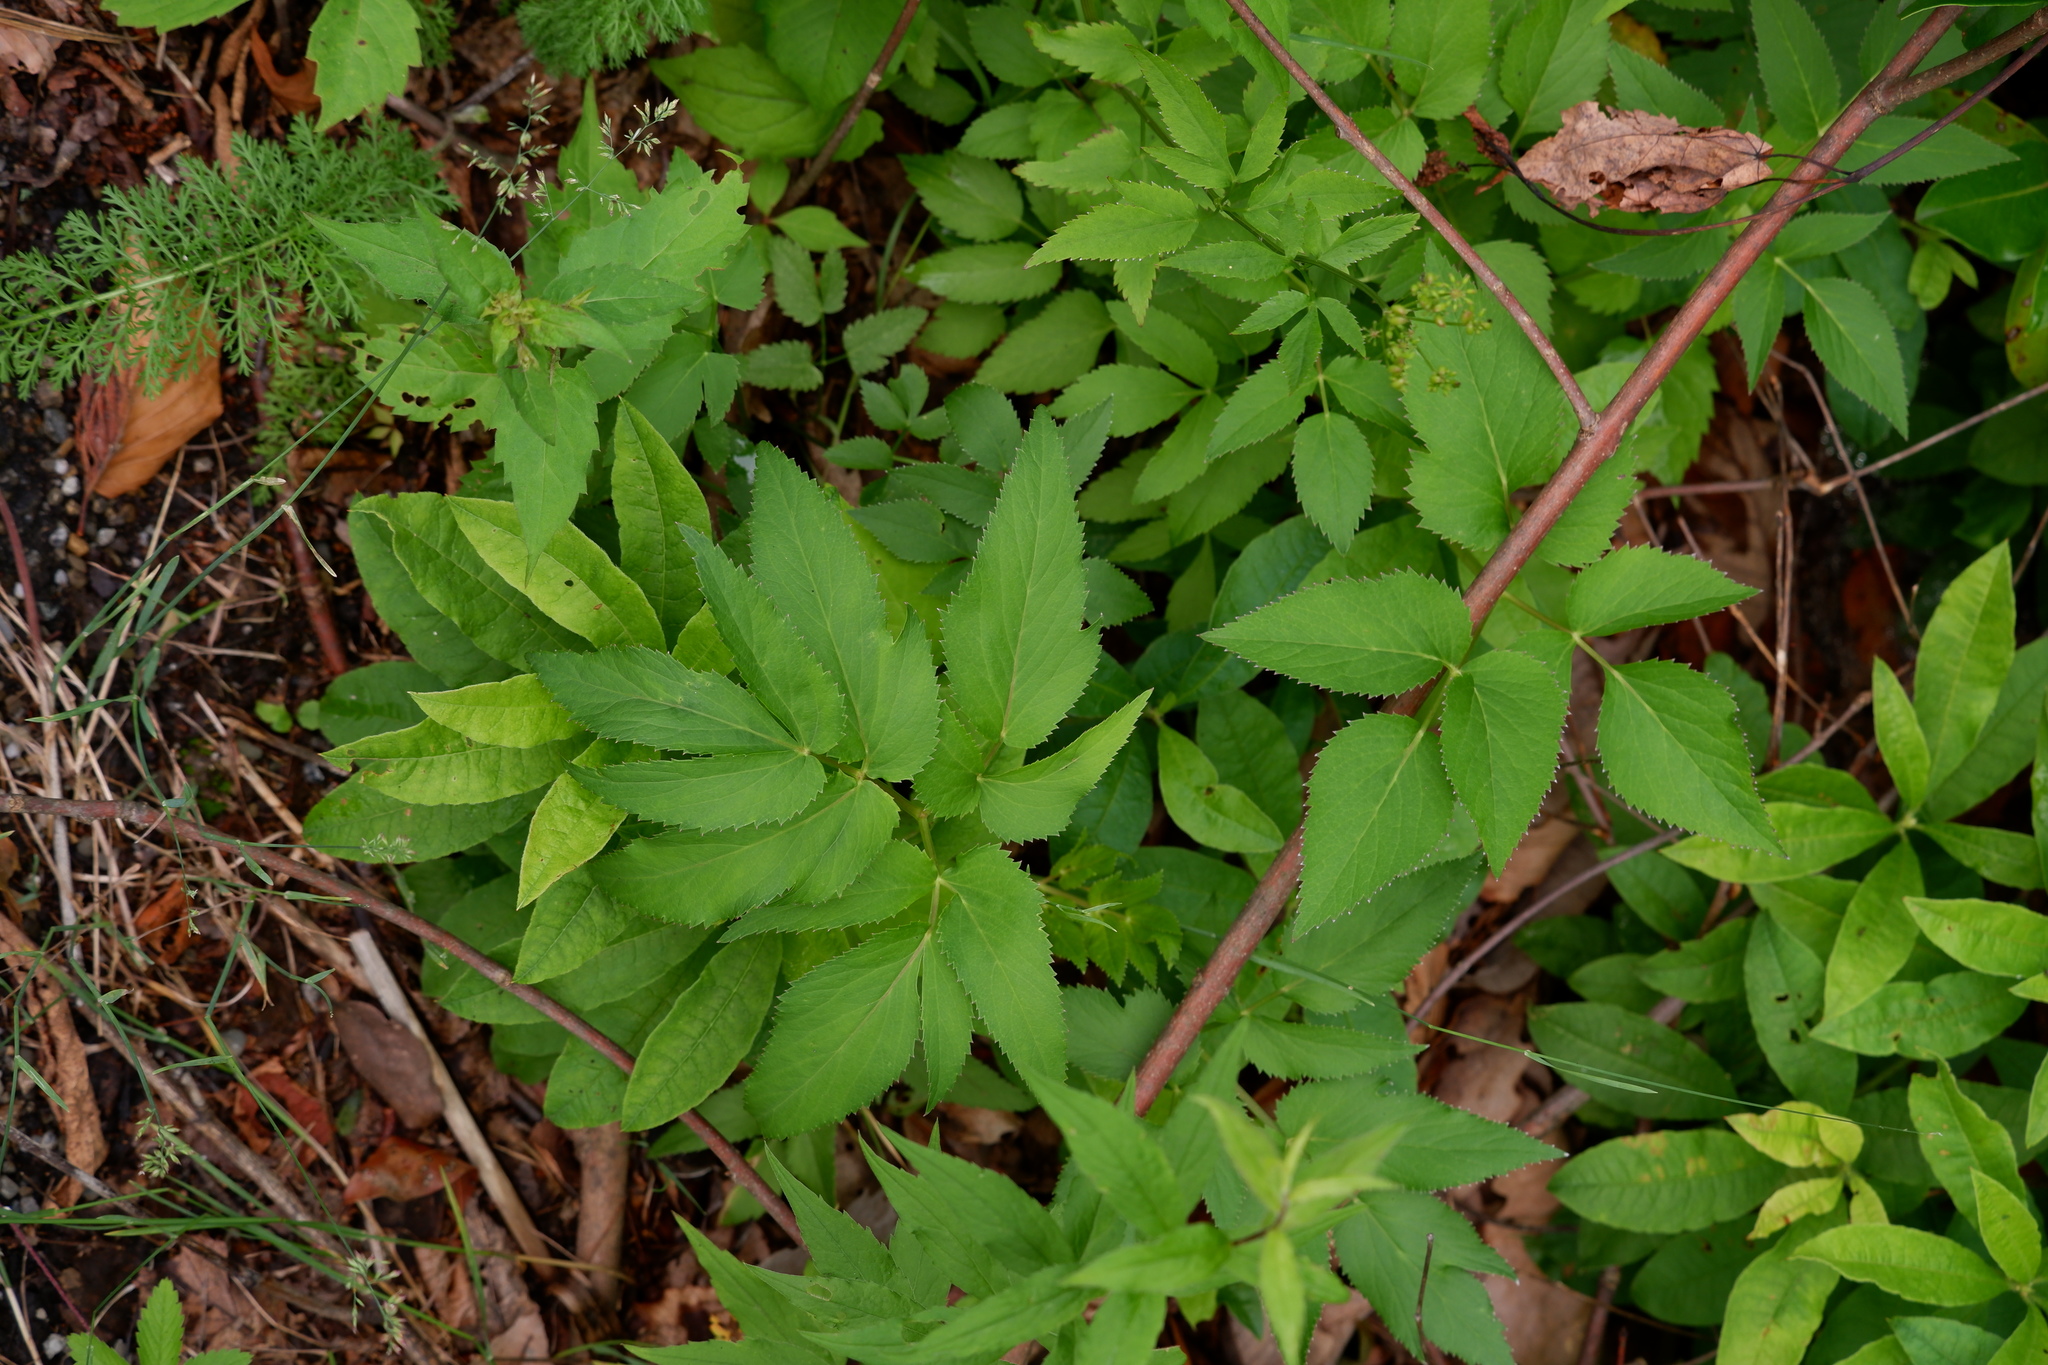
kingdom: Plantae
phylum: Tracheophyta
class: Magnoliopsida
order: Apiales
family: Apiaceae
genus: Zizia
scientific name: Zizia aurea
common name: Golden alexanders
